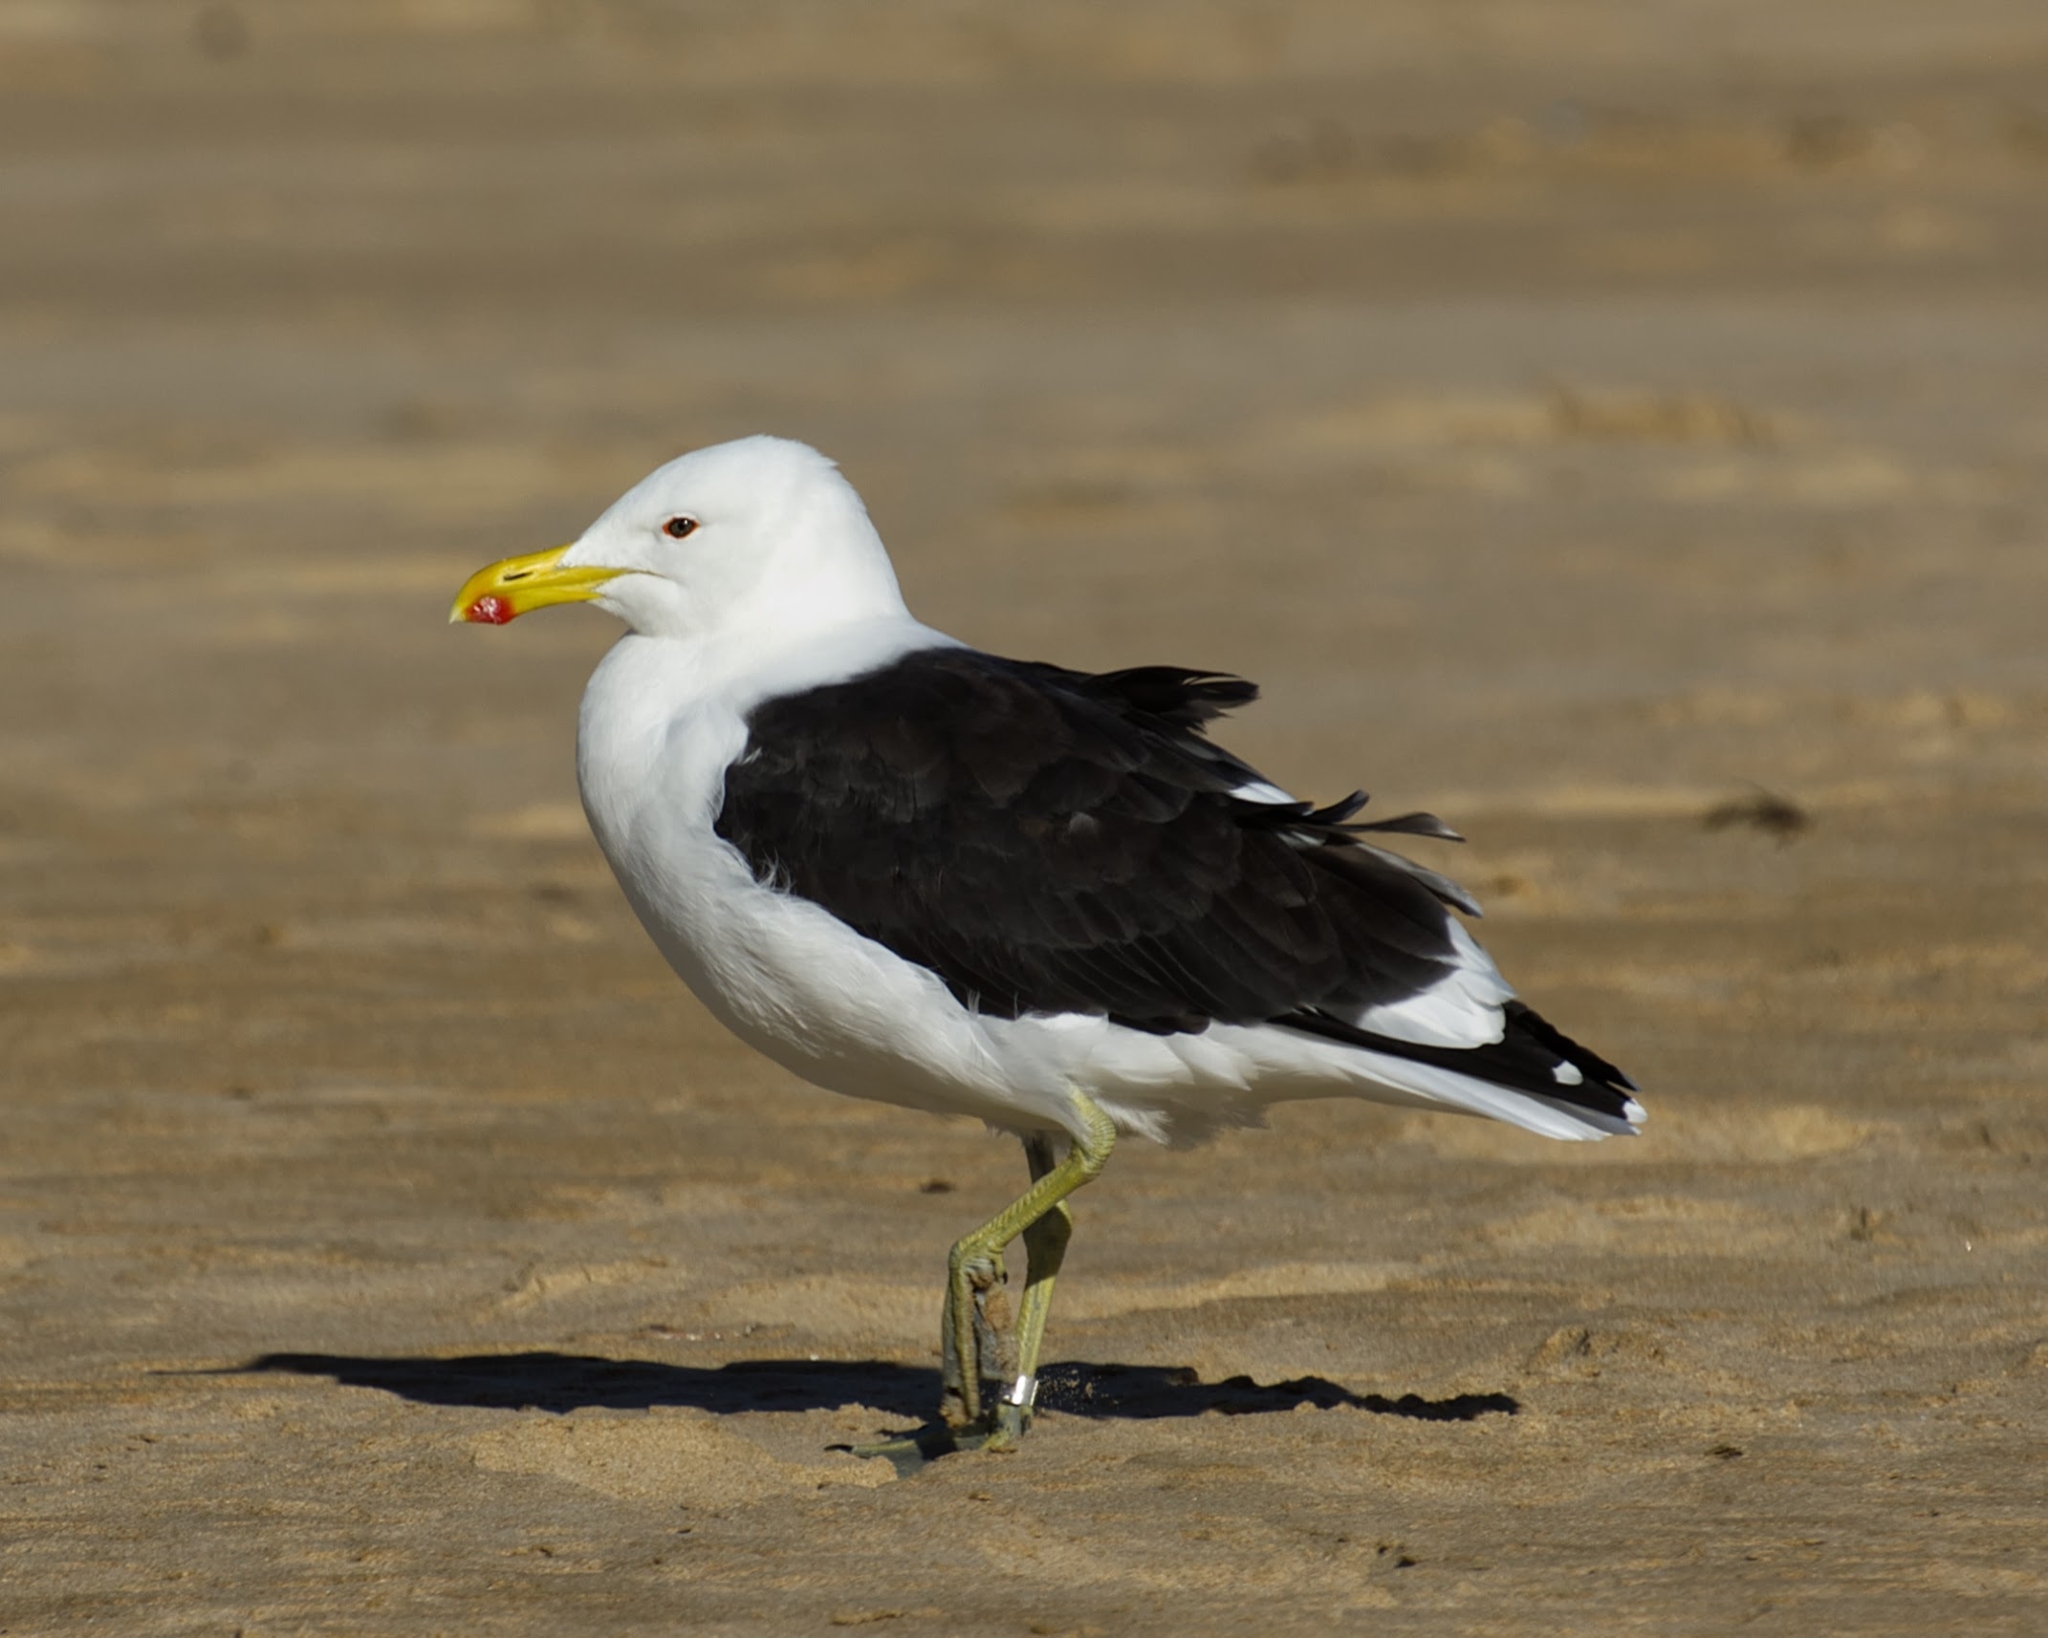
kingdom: Animalia
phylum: Chordata
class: Aves
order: Charadriiformes
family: Laridae
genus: Larus
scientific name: Larus dominicanus
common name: Kelp gull
